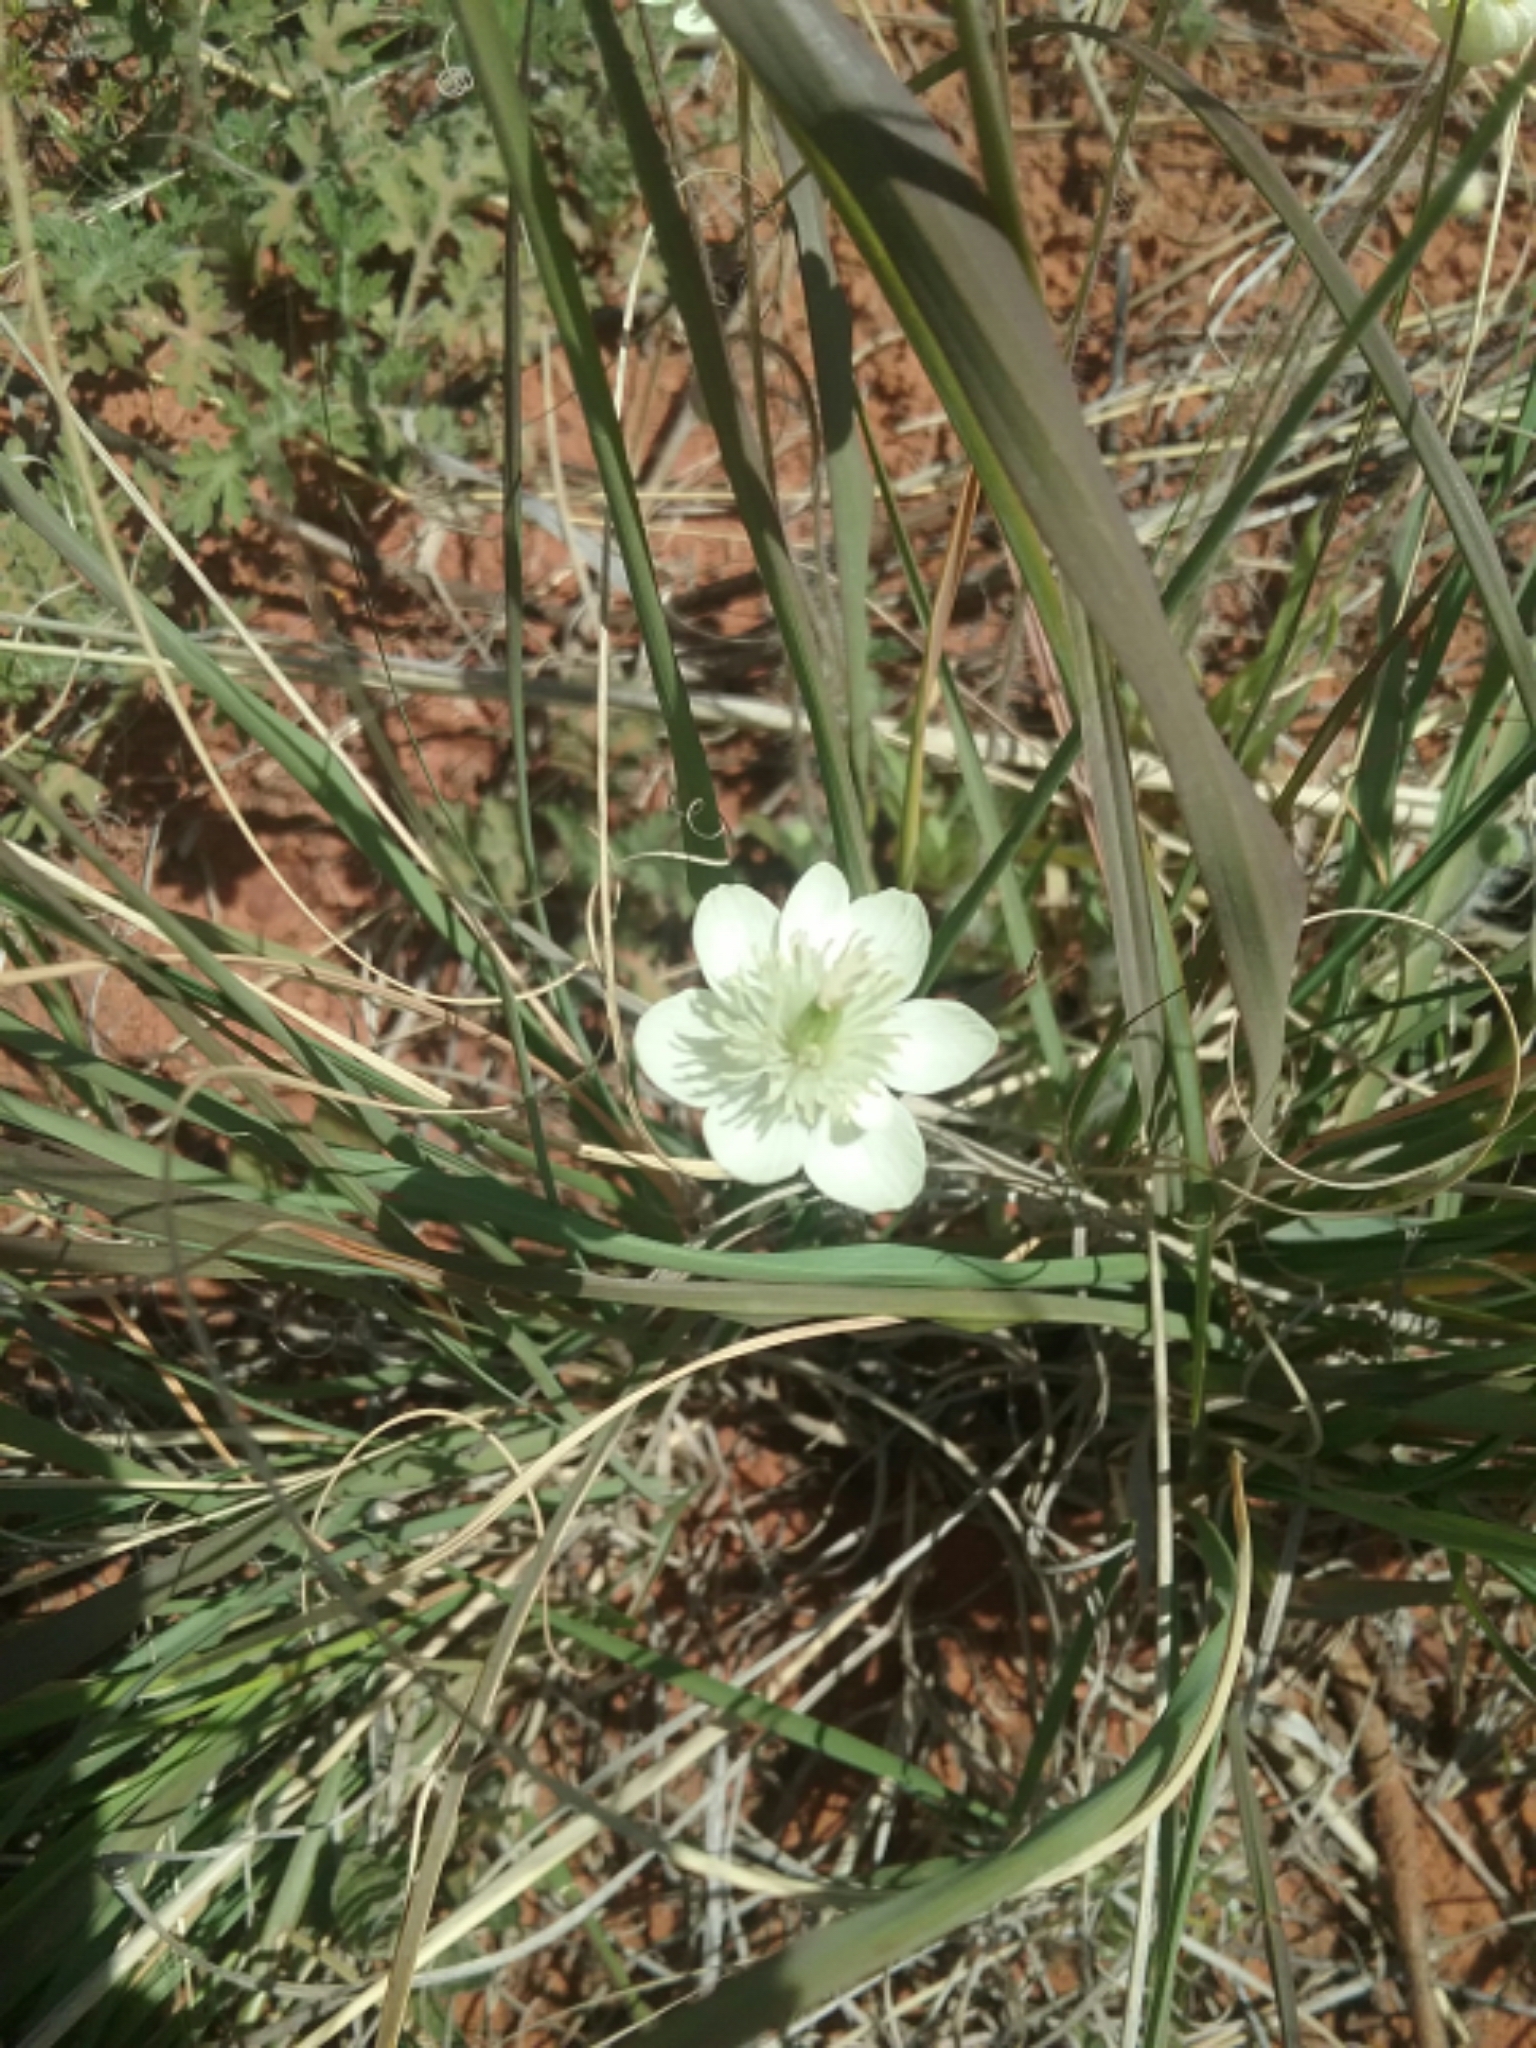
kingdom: Plantae
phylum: Tracheophyta
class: Magnoliopsida
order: Ranunculales
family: Papaveraceae
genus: Platystemon
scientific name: Platystemon californicus
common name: Cream-cups
